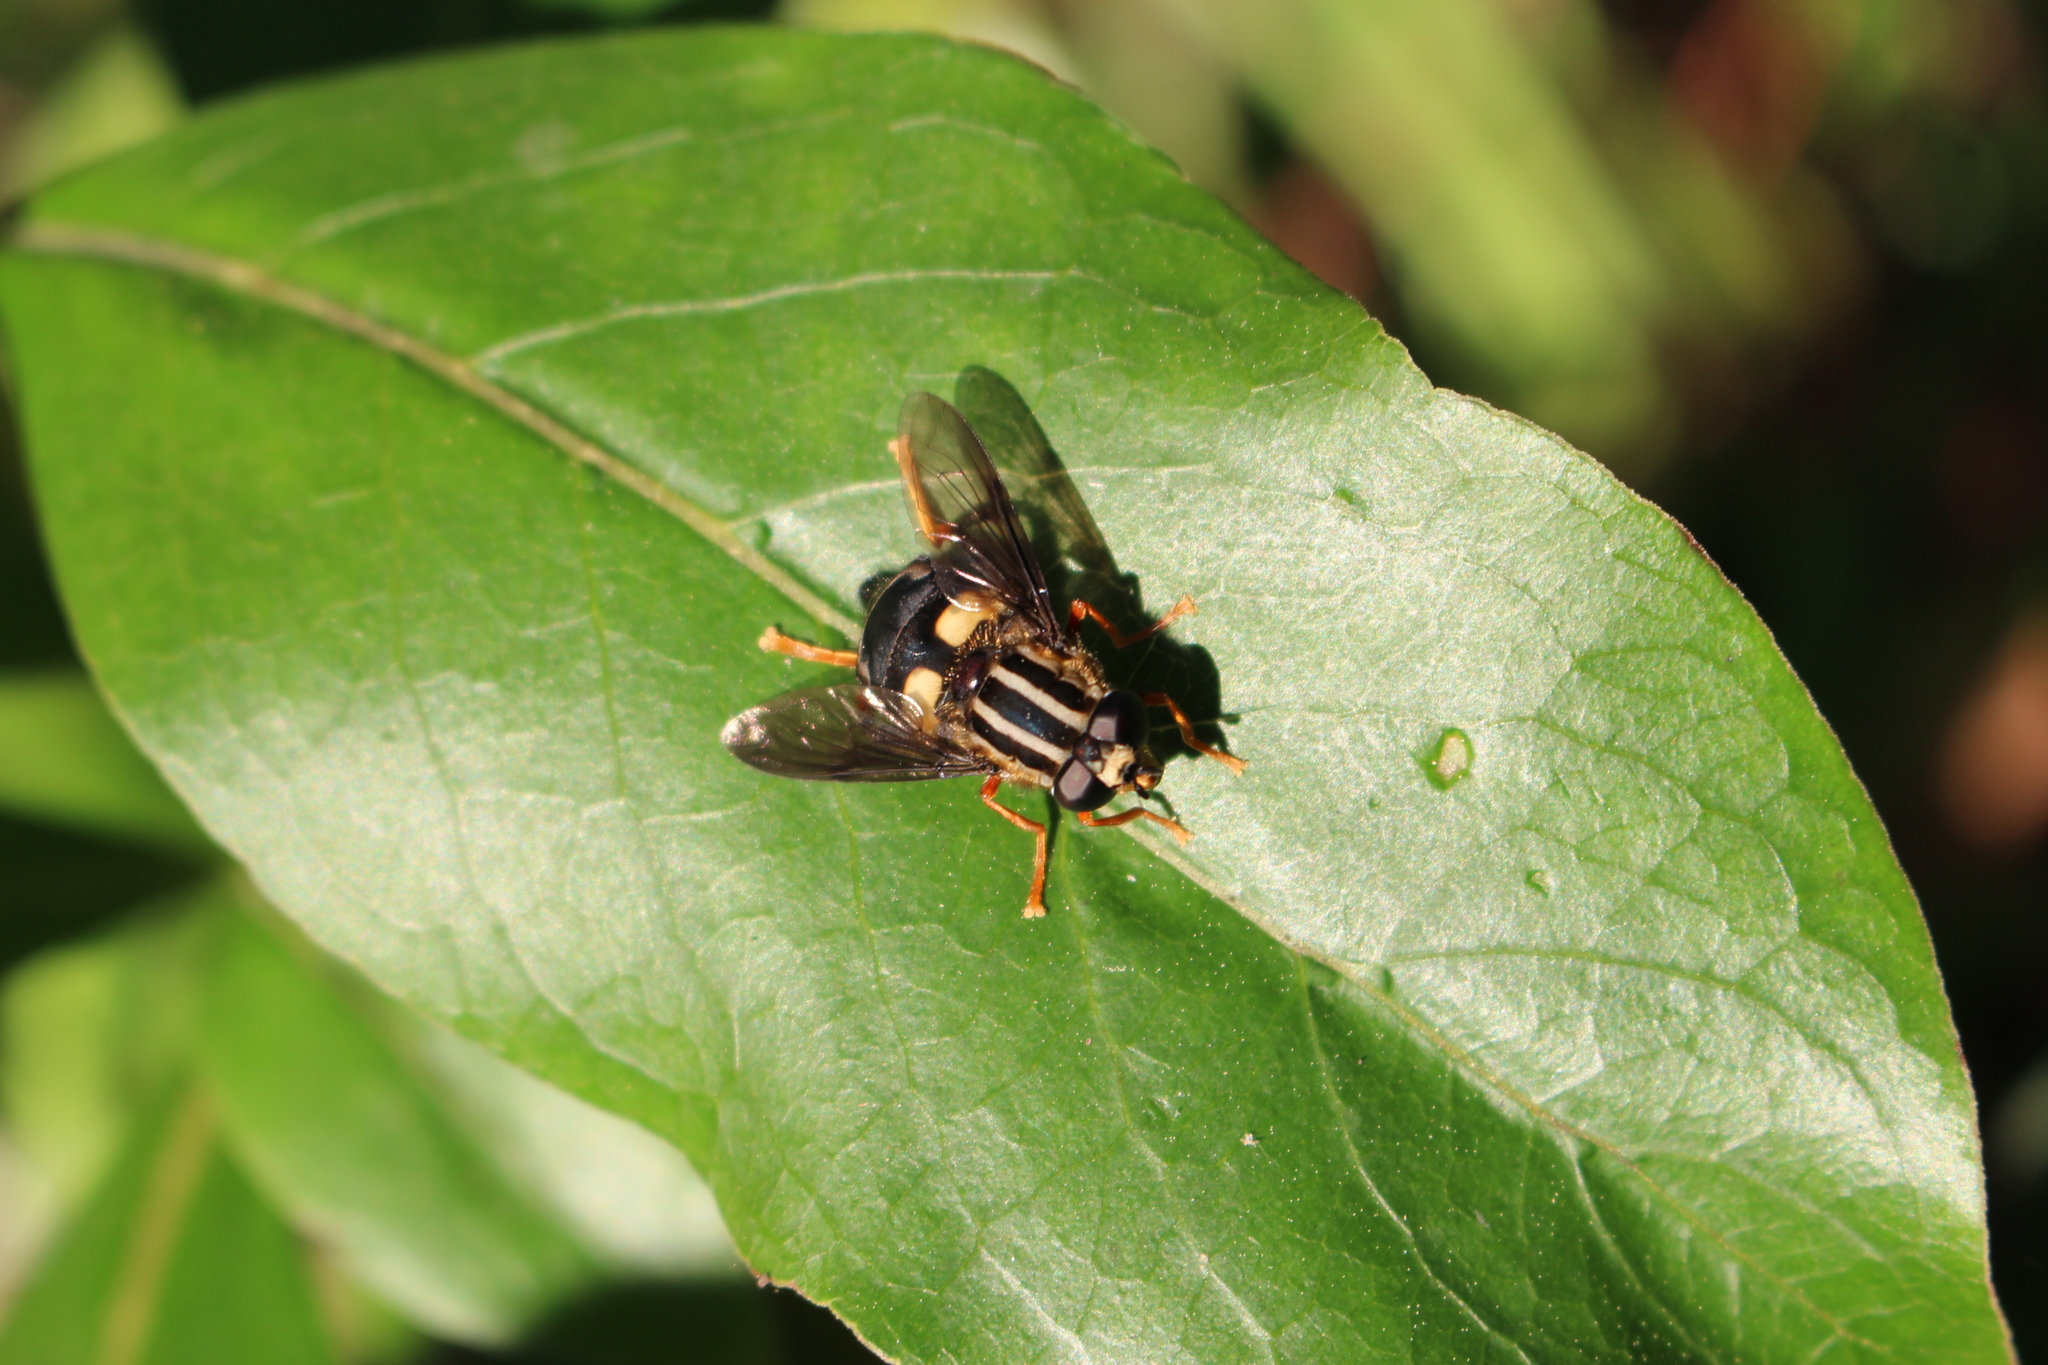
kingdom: Animalia
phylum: Arthropoda
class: Insecta
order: Diptera
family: Syrphidae
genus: Helophilus
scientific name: Helophilus seelandicus
